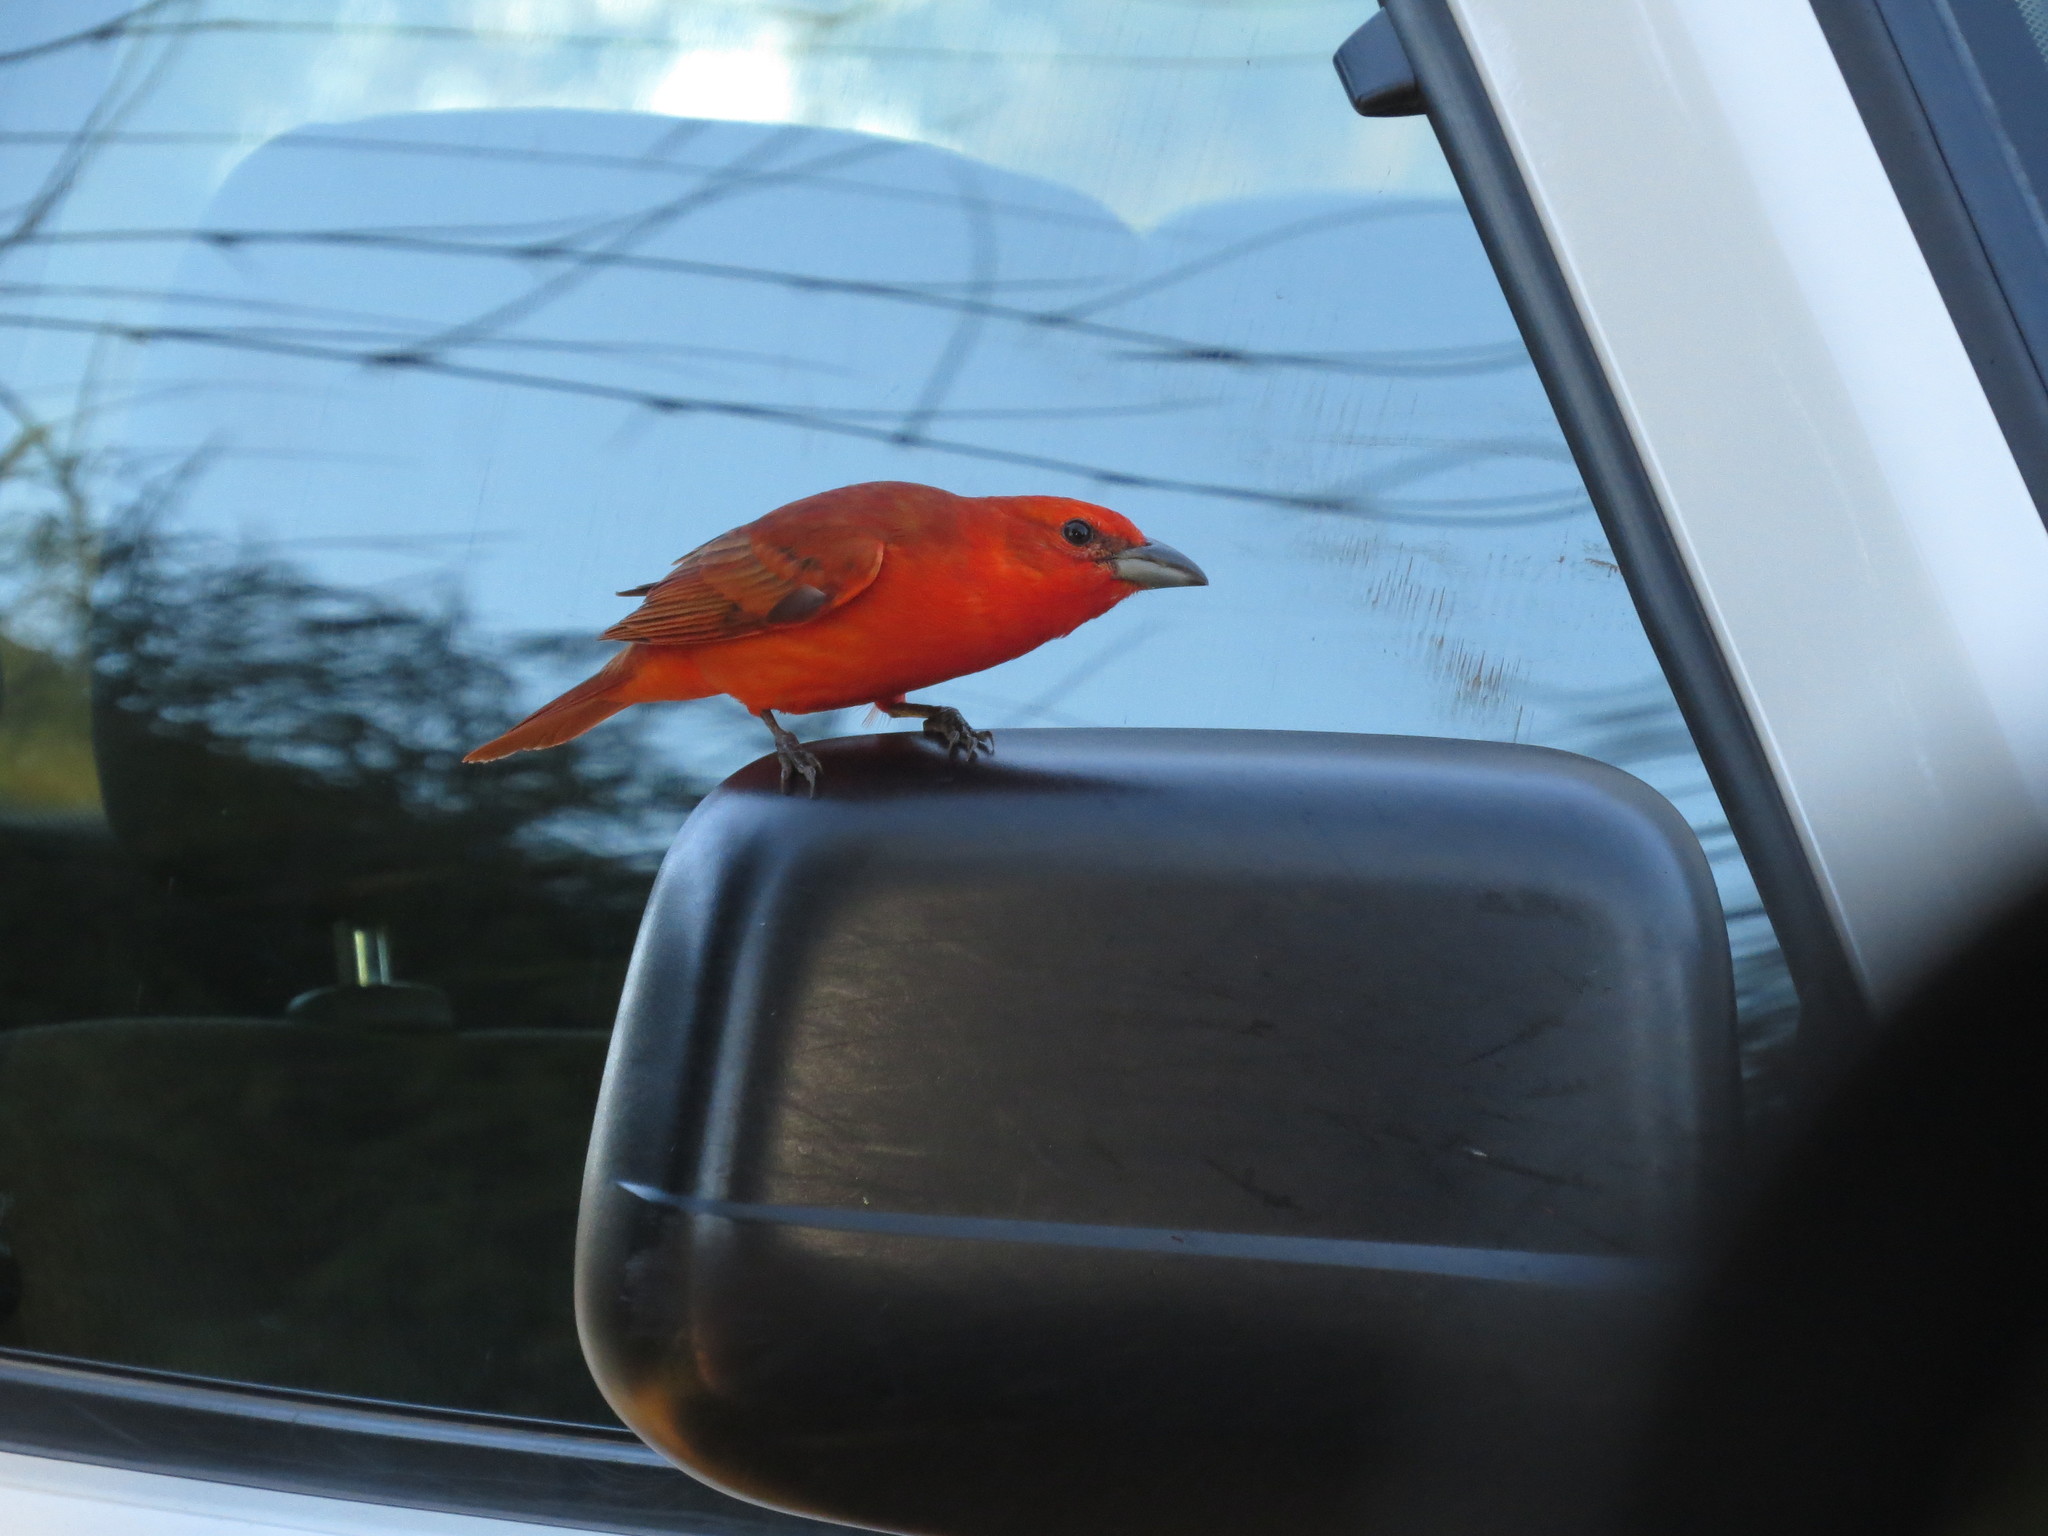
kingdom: Animalia
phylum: Chordata
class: Aves
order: Passeriformes
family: Cardinalidae
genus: Piranga
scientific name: Piranga flava
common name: Red tanager
